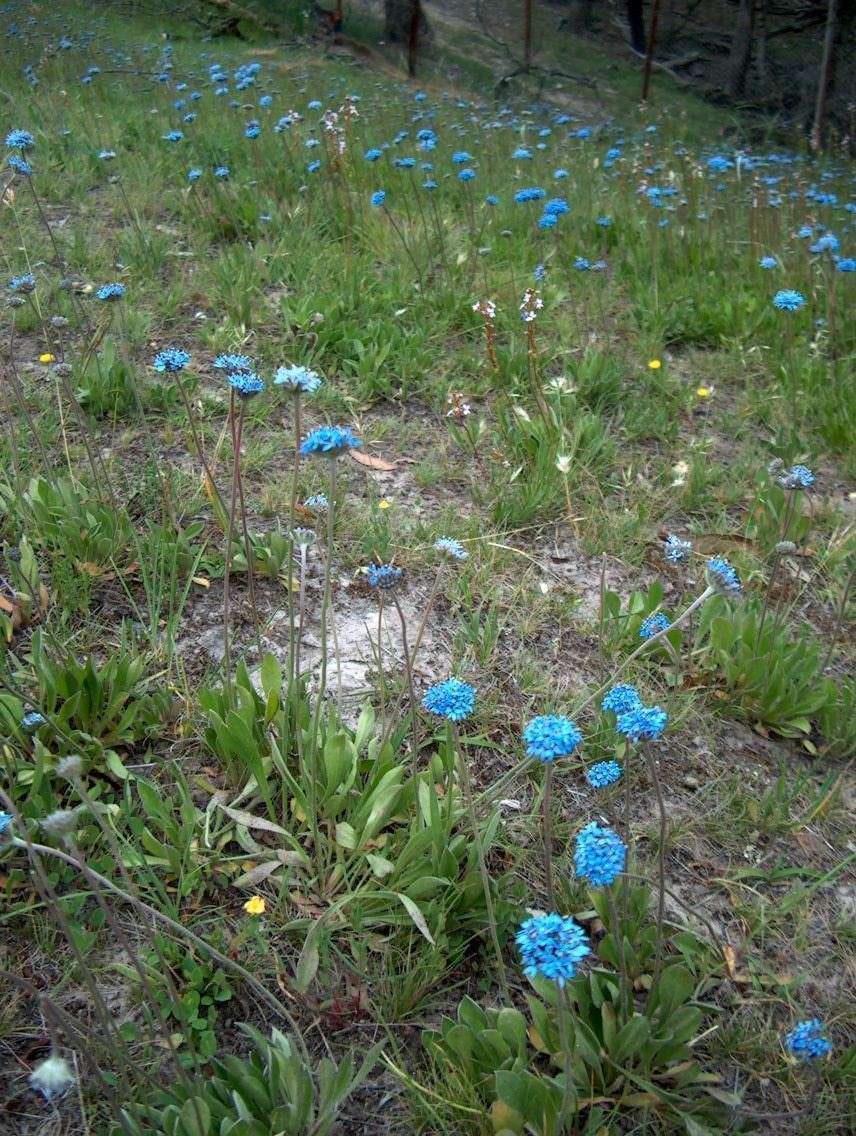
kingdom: Plantae
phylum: Tracheophyta
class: Magnoliopsida
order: Asterales
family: Goodeniaceae
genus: Brunonia
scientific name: Brunonia australis
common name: Blue pincushion
